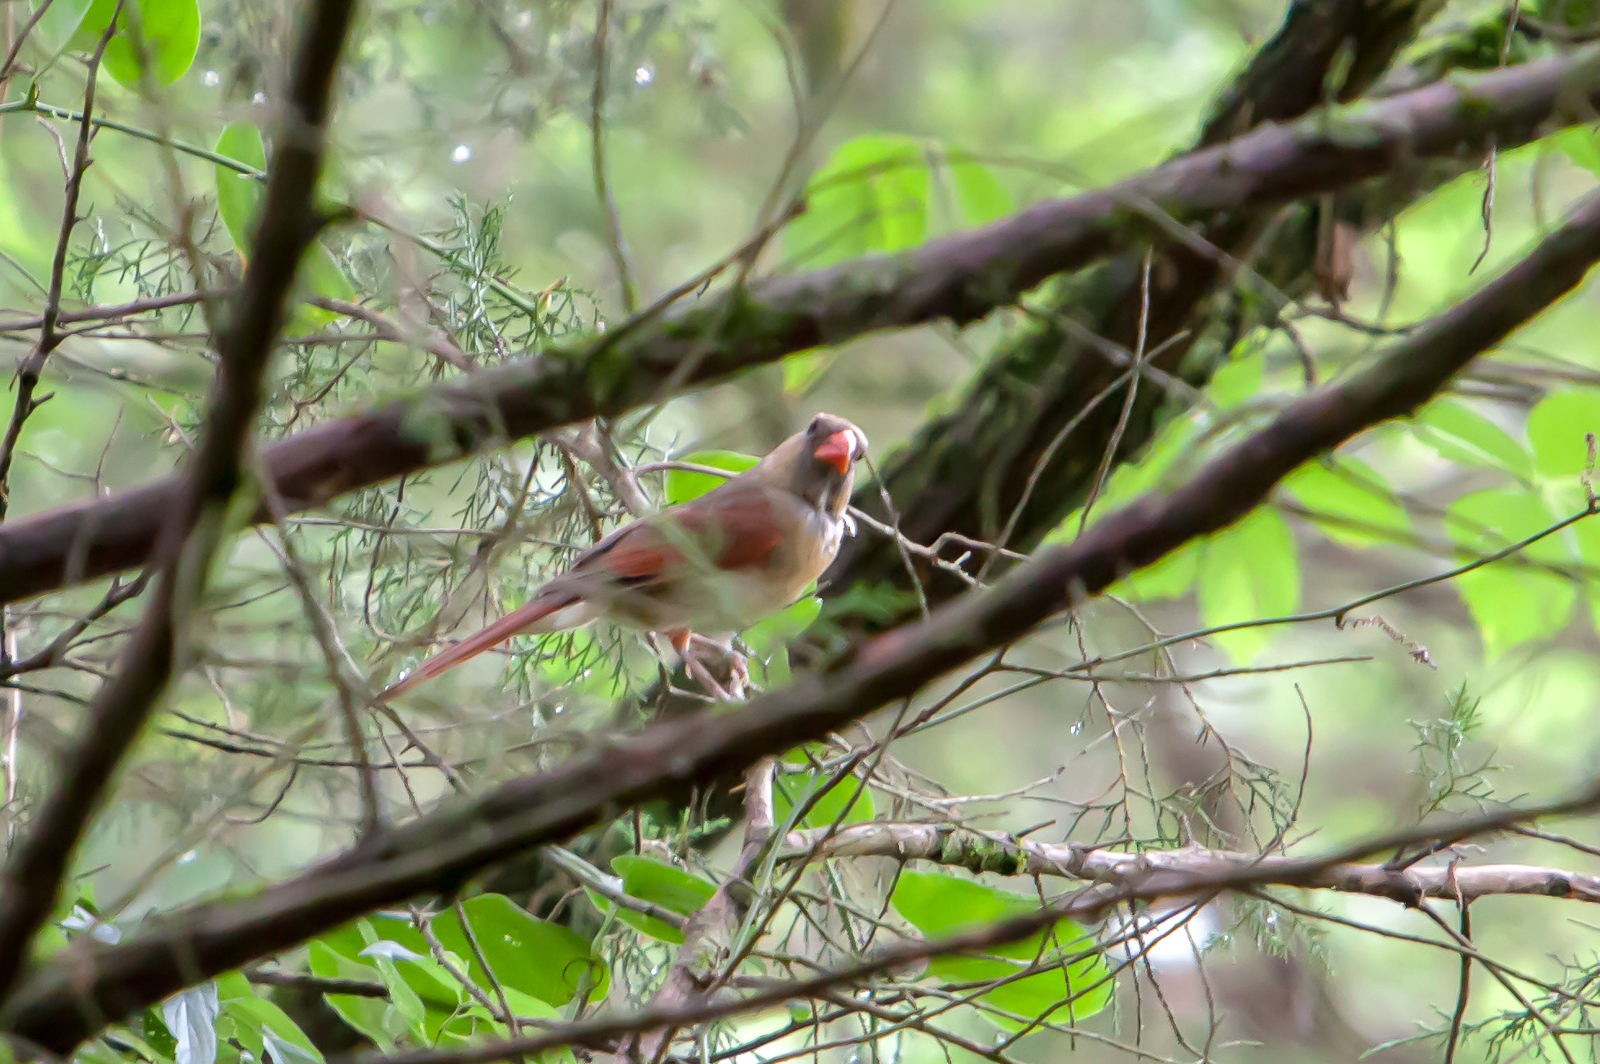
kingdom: Animalia
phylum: Chordata
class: Aves
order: Passeriformes
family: Cardinalidae
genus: Cardinalis
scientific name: Cardinalis cardinalis
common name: Northern cardinal
